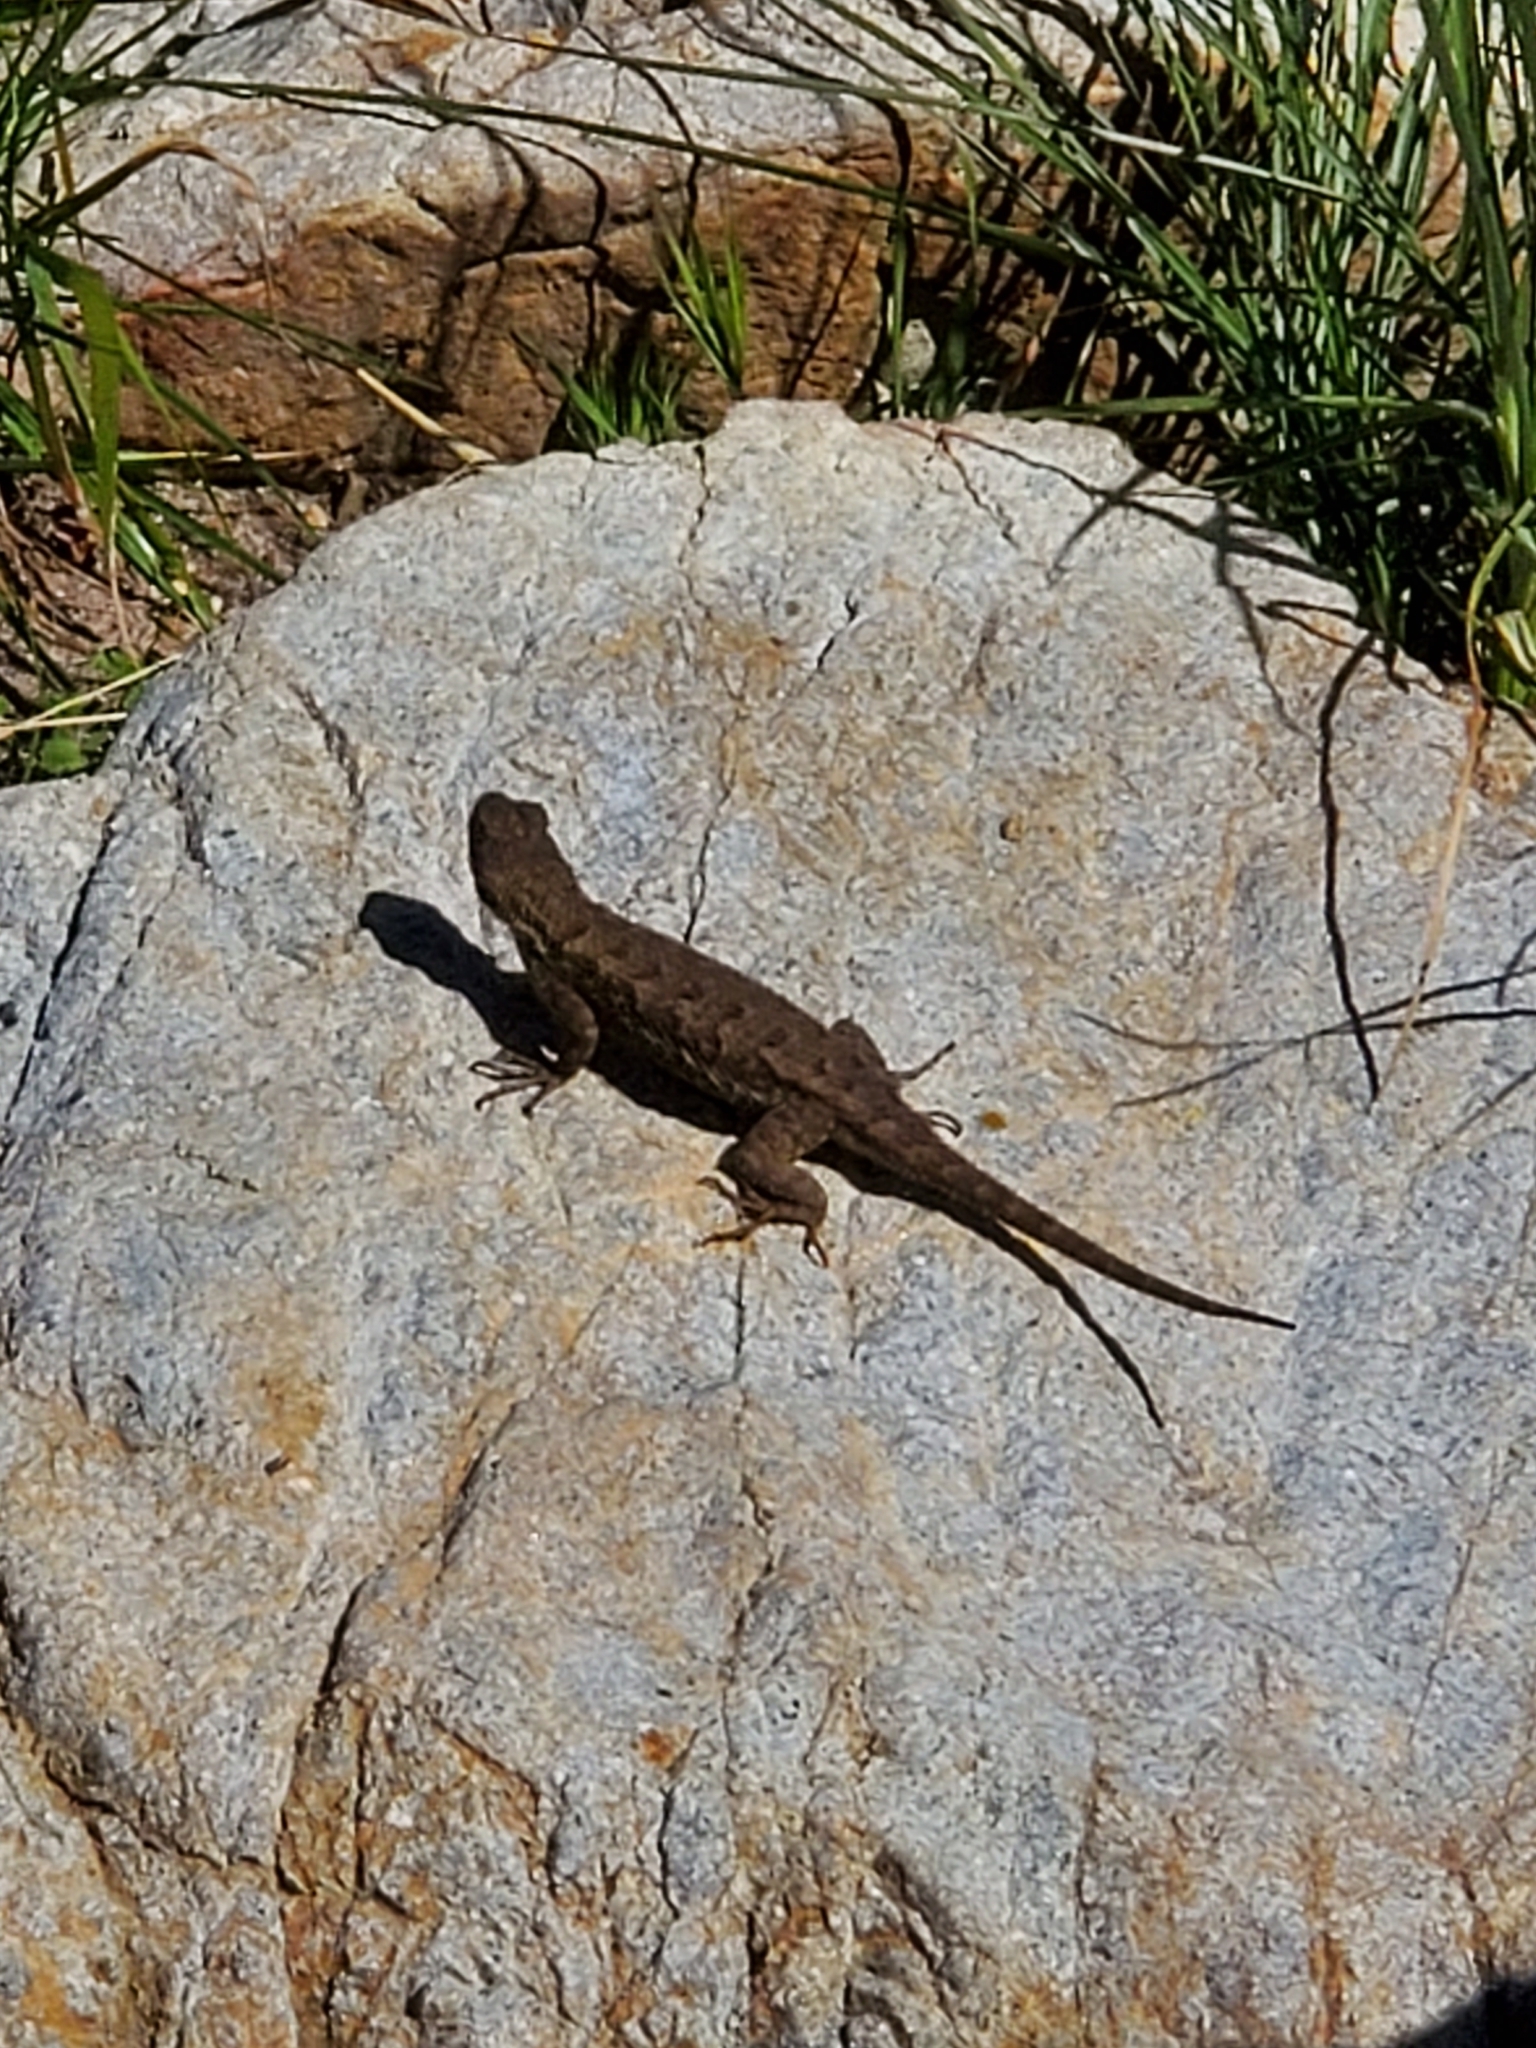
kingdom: Animalia
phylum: Chordata
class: Squamata
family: Phrynosomatidae
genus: Sceloporus
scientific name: Sceloporus occidentalis
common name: Western fence lizard
